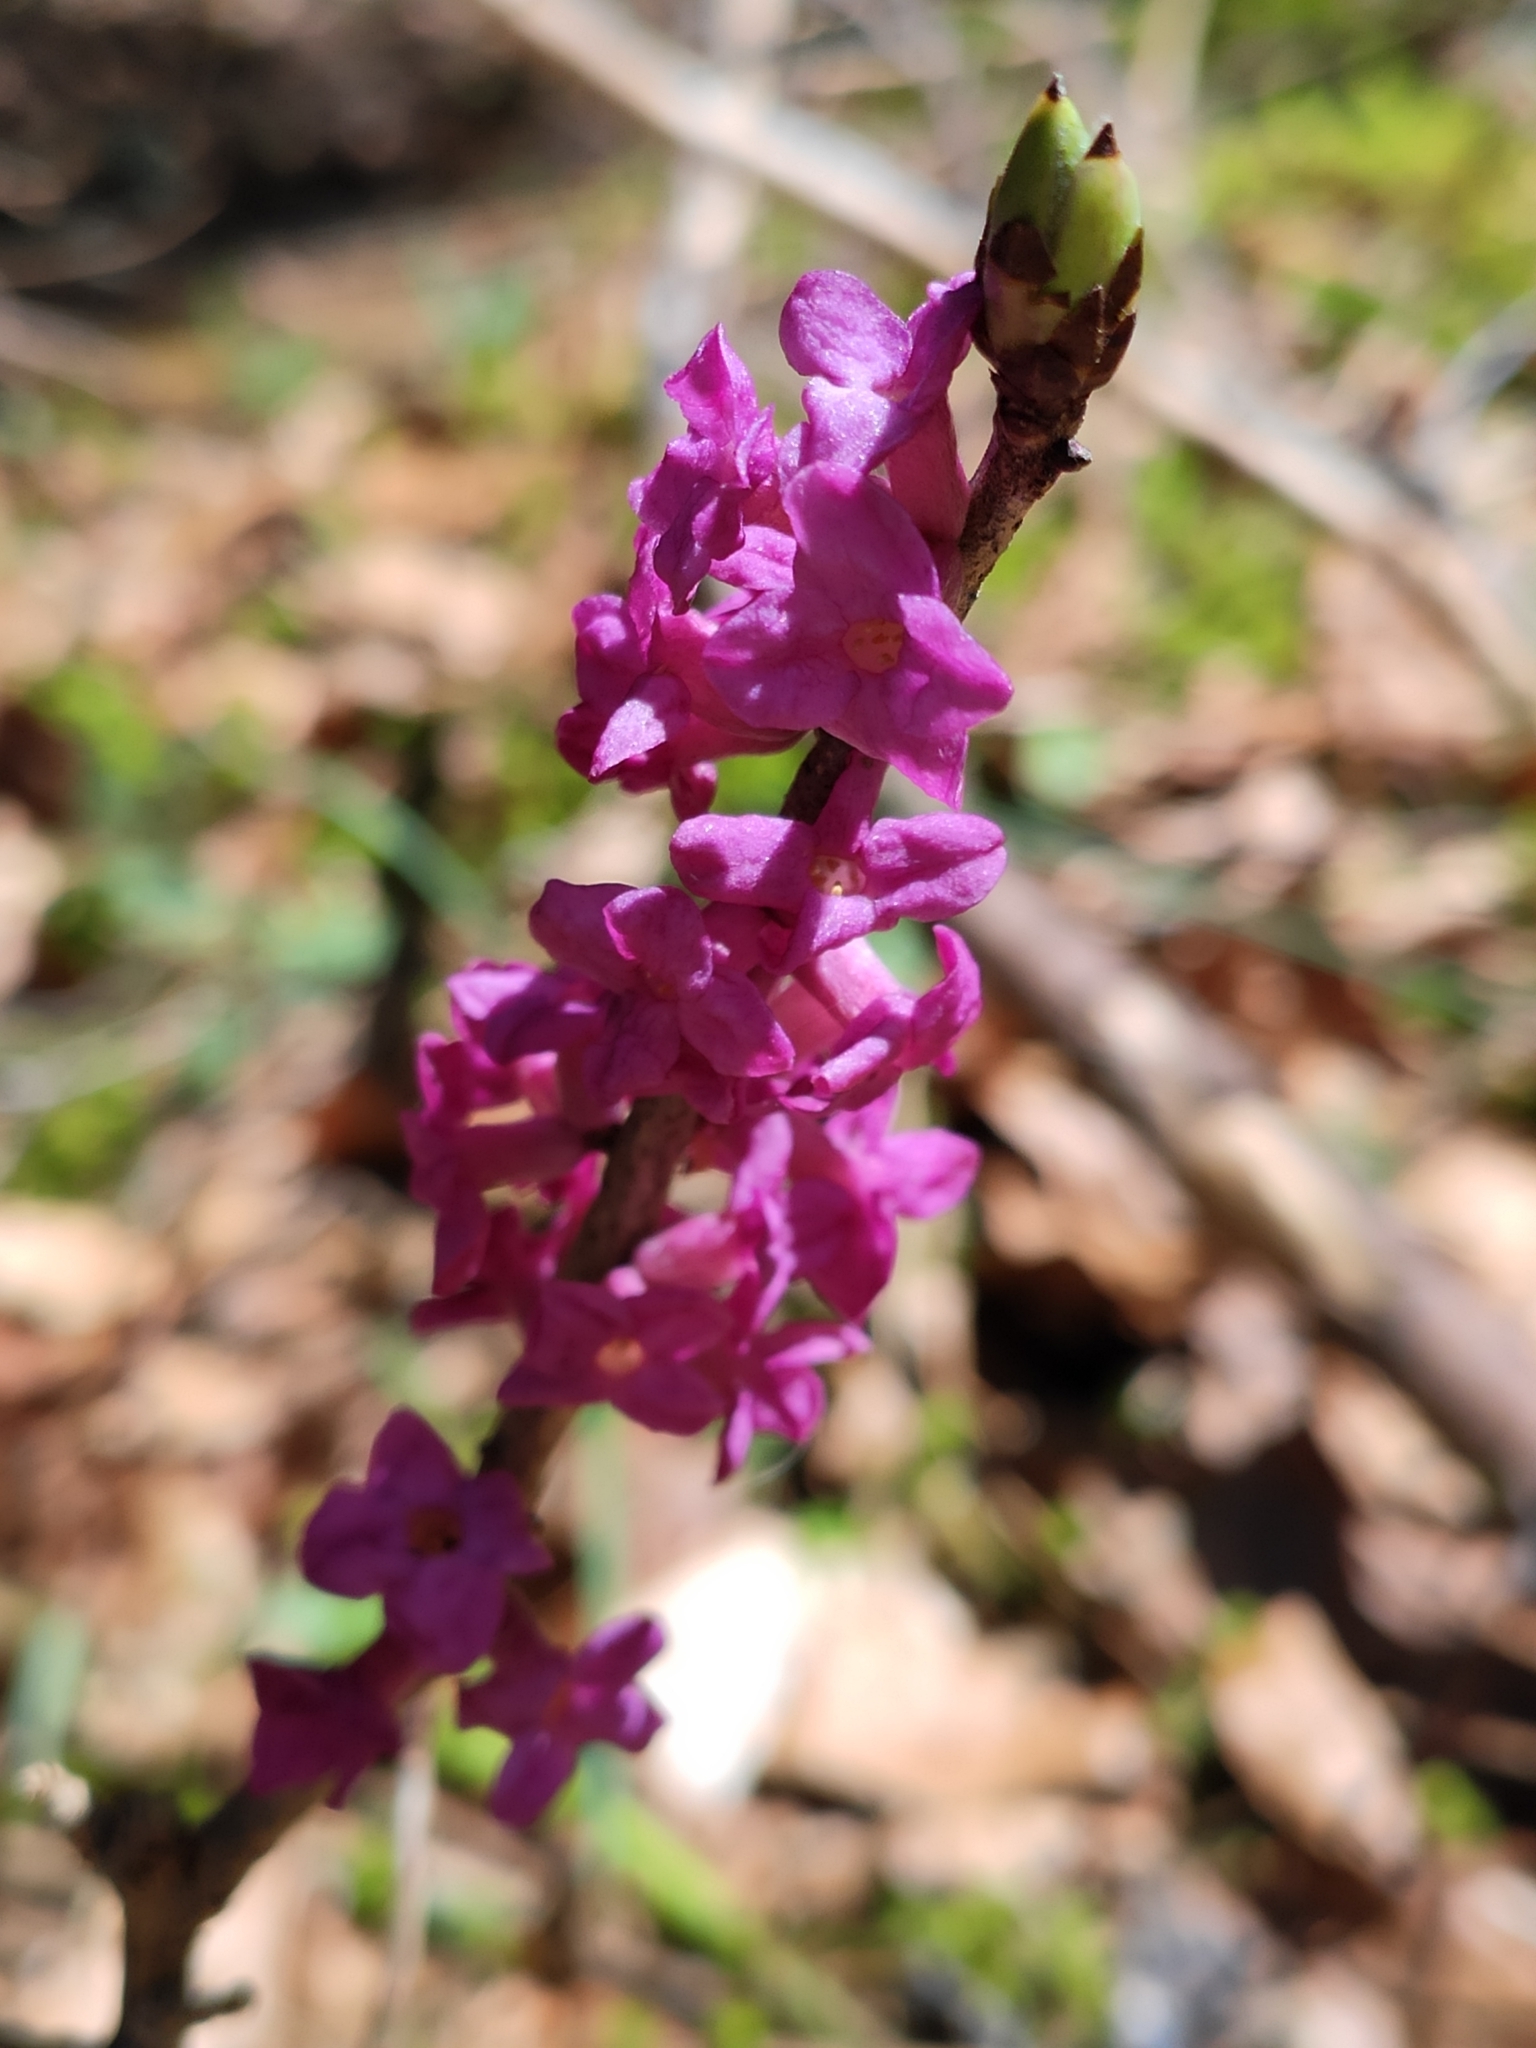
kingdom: Plantae
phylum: Tracheophyta
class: Magnoliopsida
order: Malvales
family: Thymelaeaceae
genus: Daphne
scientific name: Daphne mezereum
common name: Mezereon
